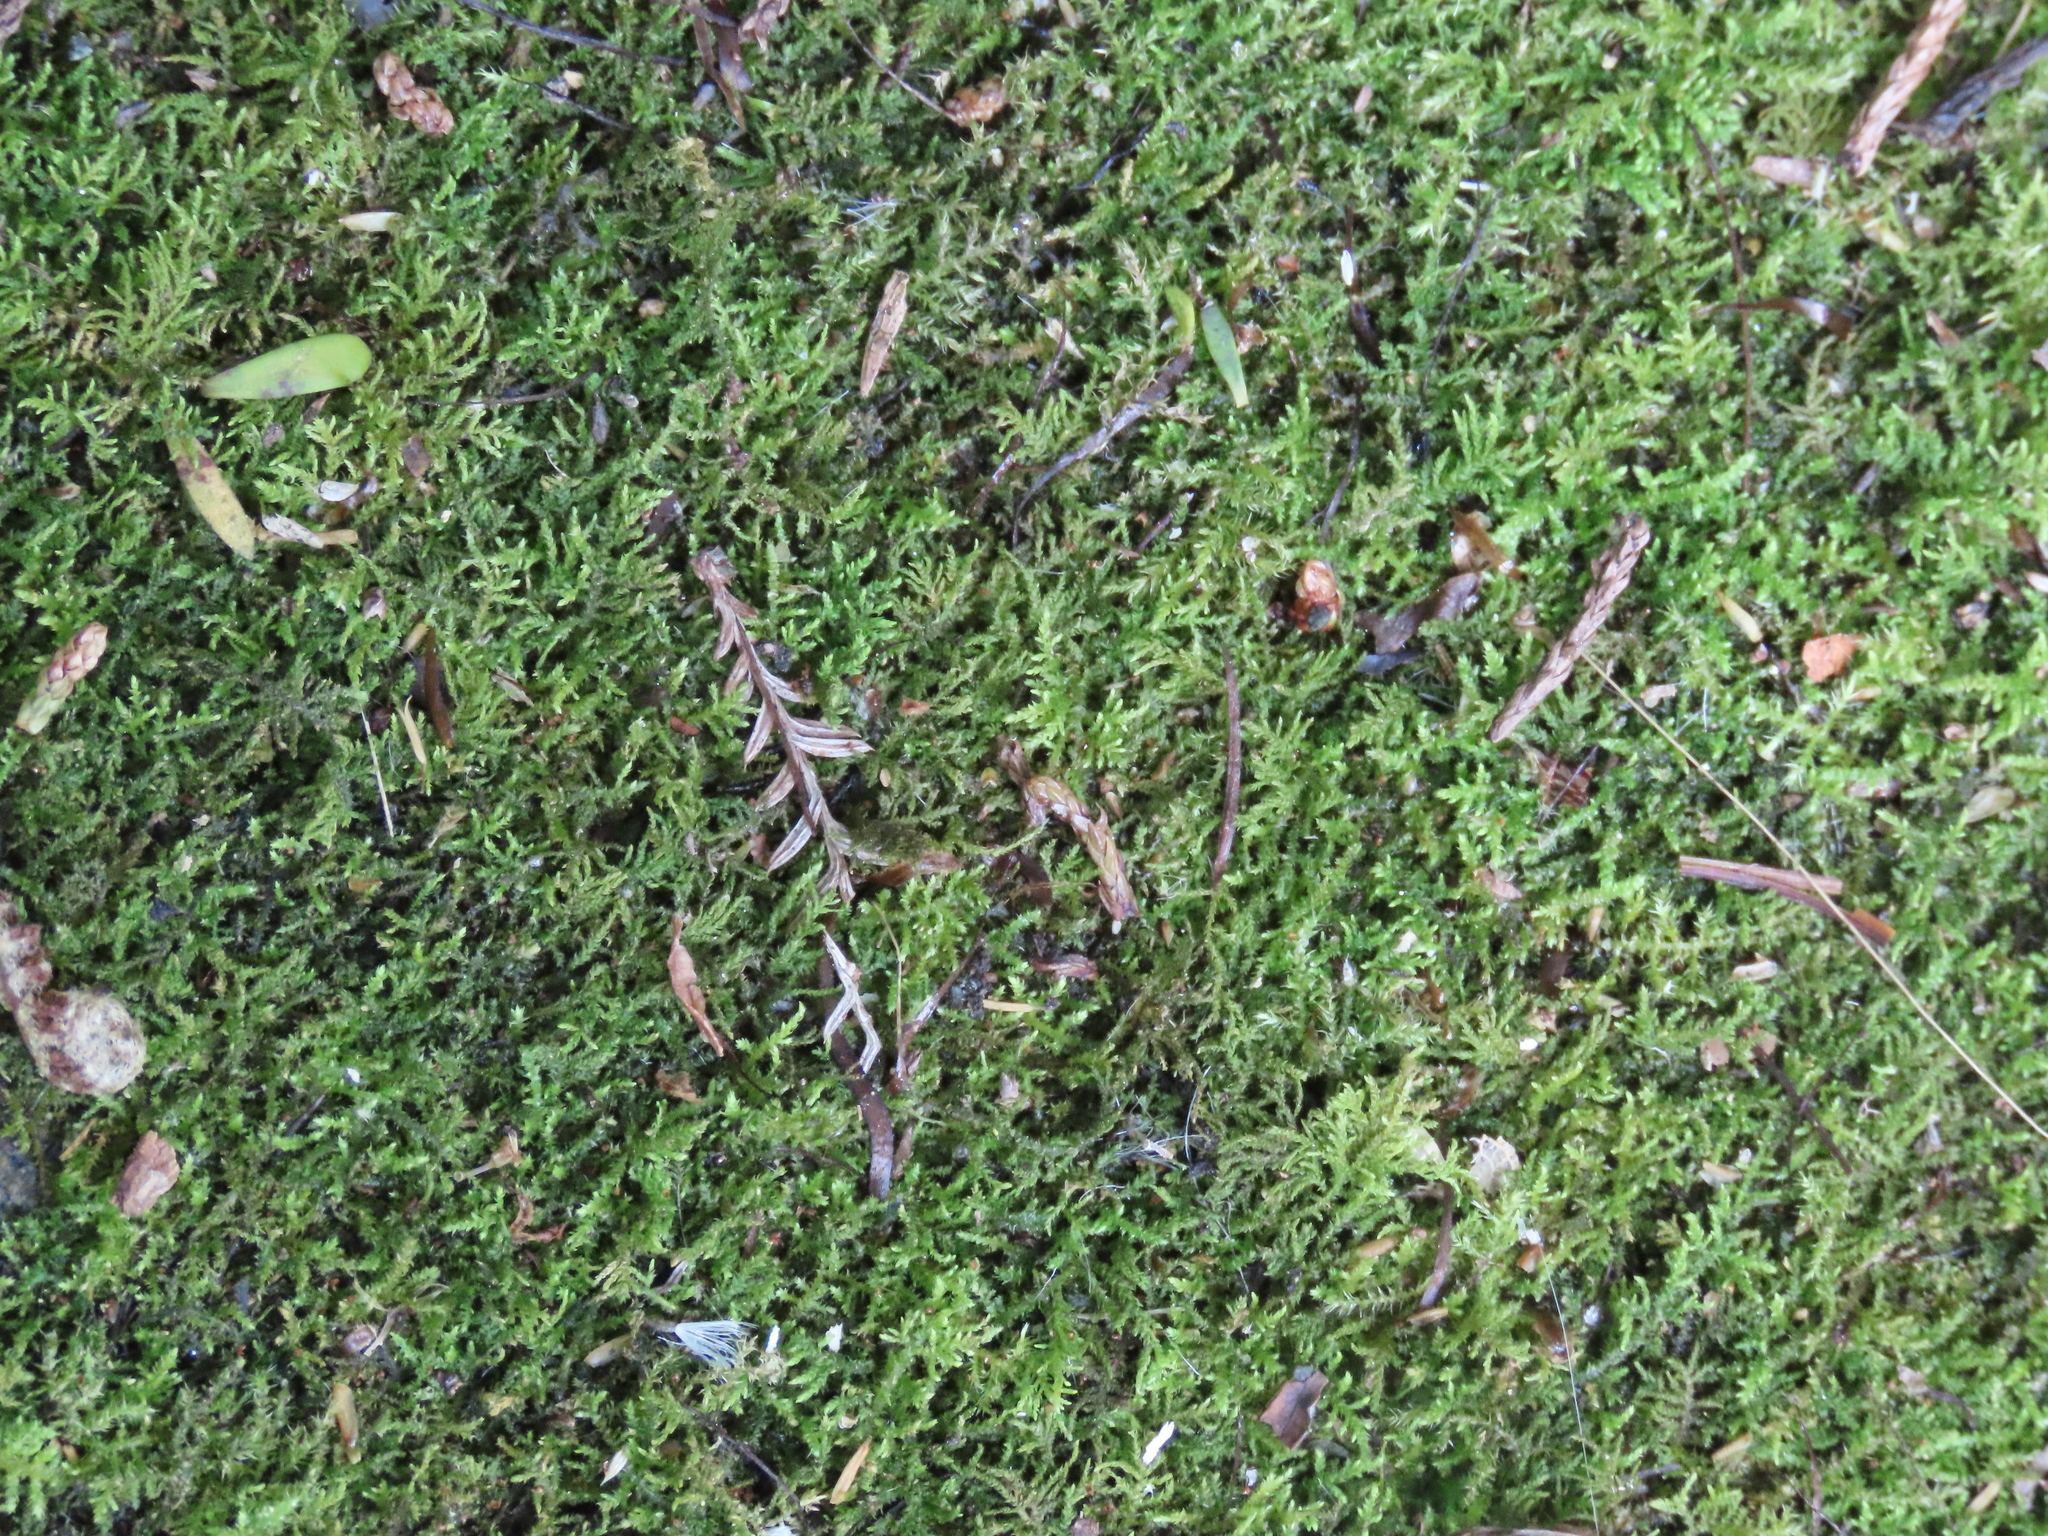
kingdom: Plantae
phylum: Bryophyta
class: Bryopsida
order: Hypnales
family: Brachytheciaceae
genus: Pseudoscleropodium
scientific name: Pseudoscleropodium purum
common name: Neat feather-moss
